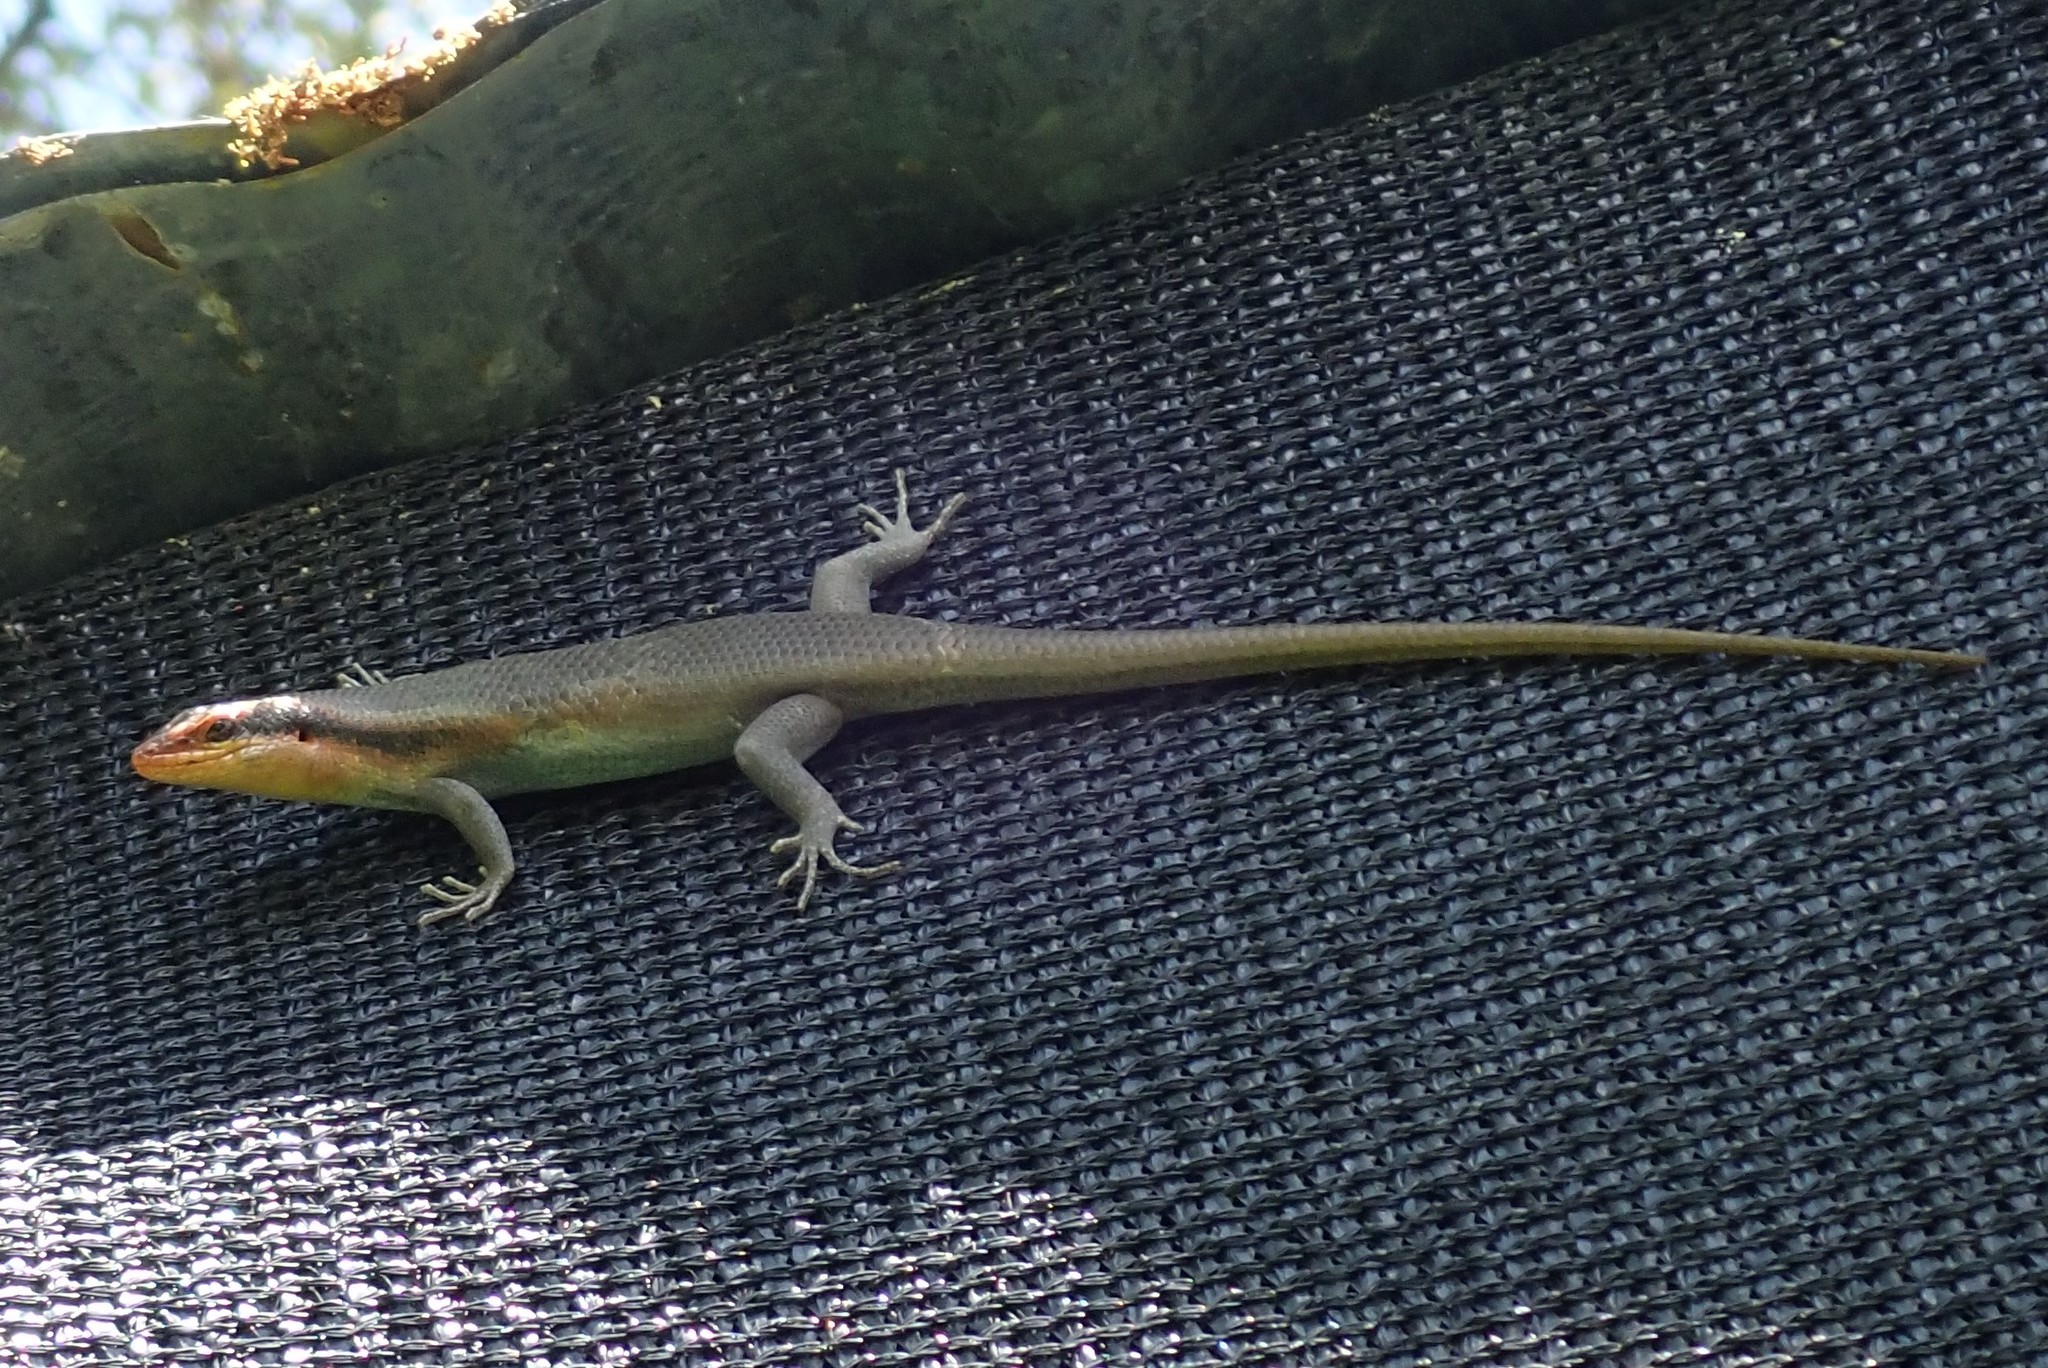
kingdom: Animalia
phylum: Chordata
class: Squamata
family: Scincidae
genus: Trachylepis
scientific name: Trachylepis wahlbergii
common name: Wahlberg’s striped skink
